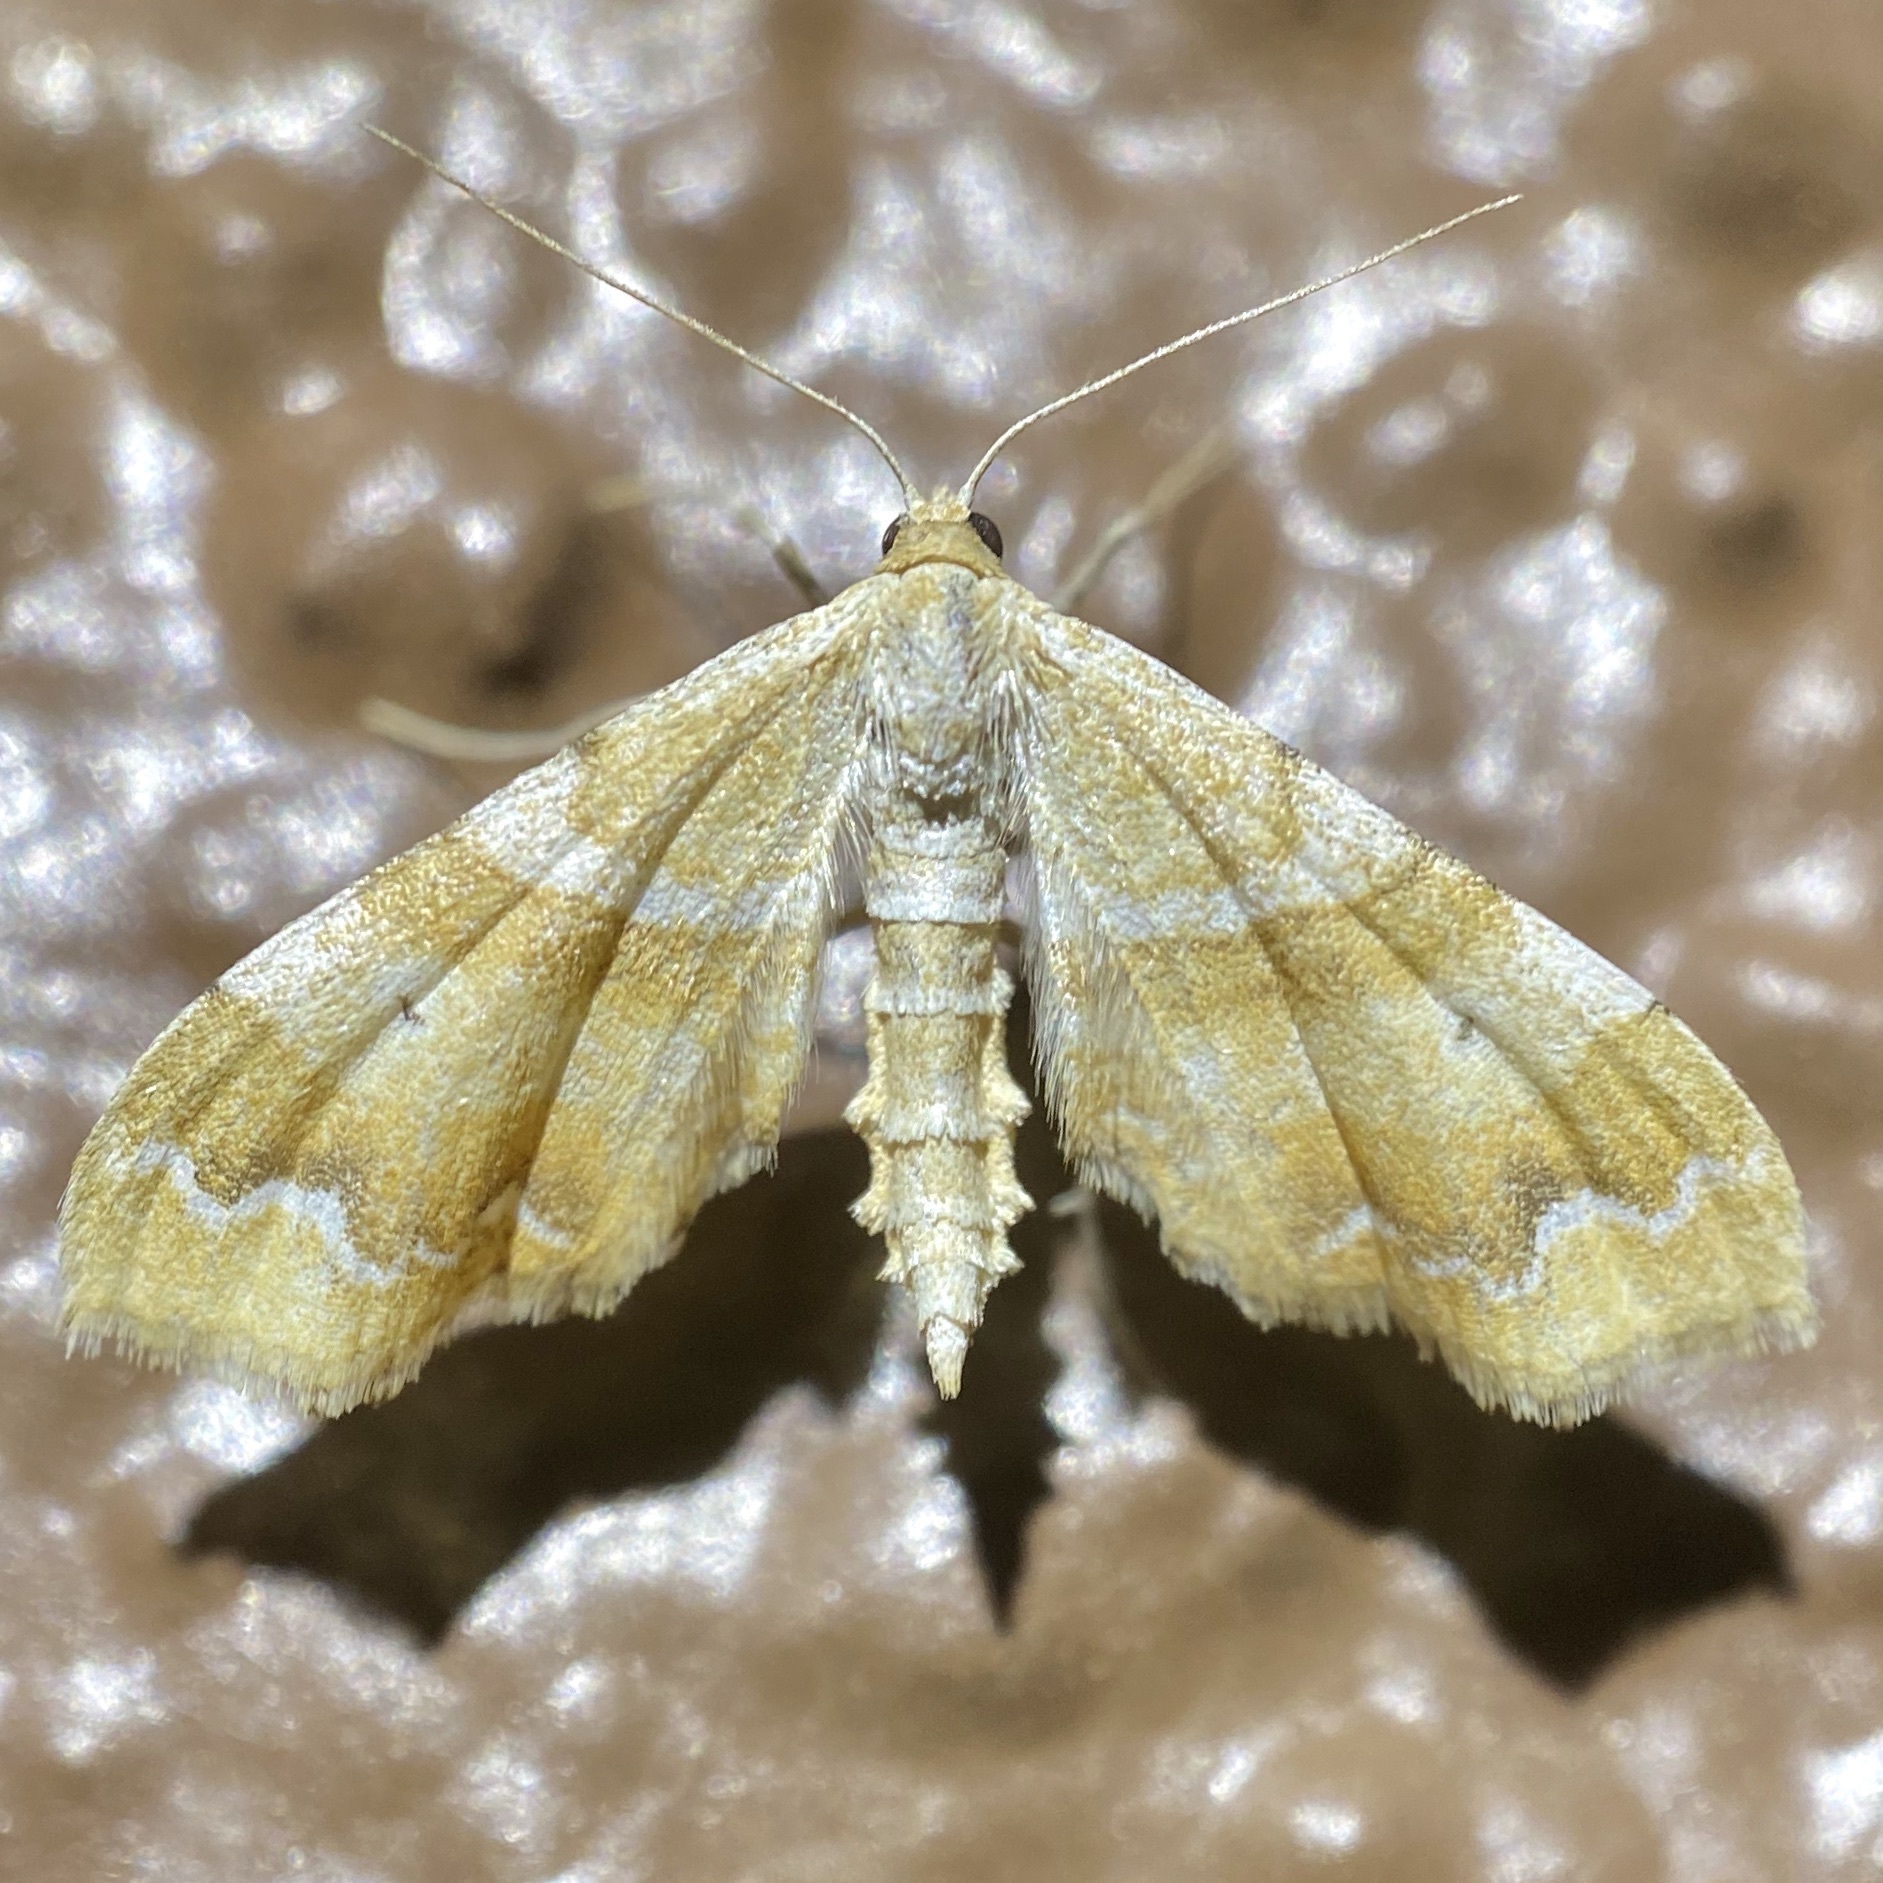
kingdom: Animalia
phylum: Arthropoda
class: Insecta
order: Lepidoptera
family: Geometridae
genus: Odontoptila
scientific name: Odontoptila obrimo
